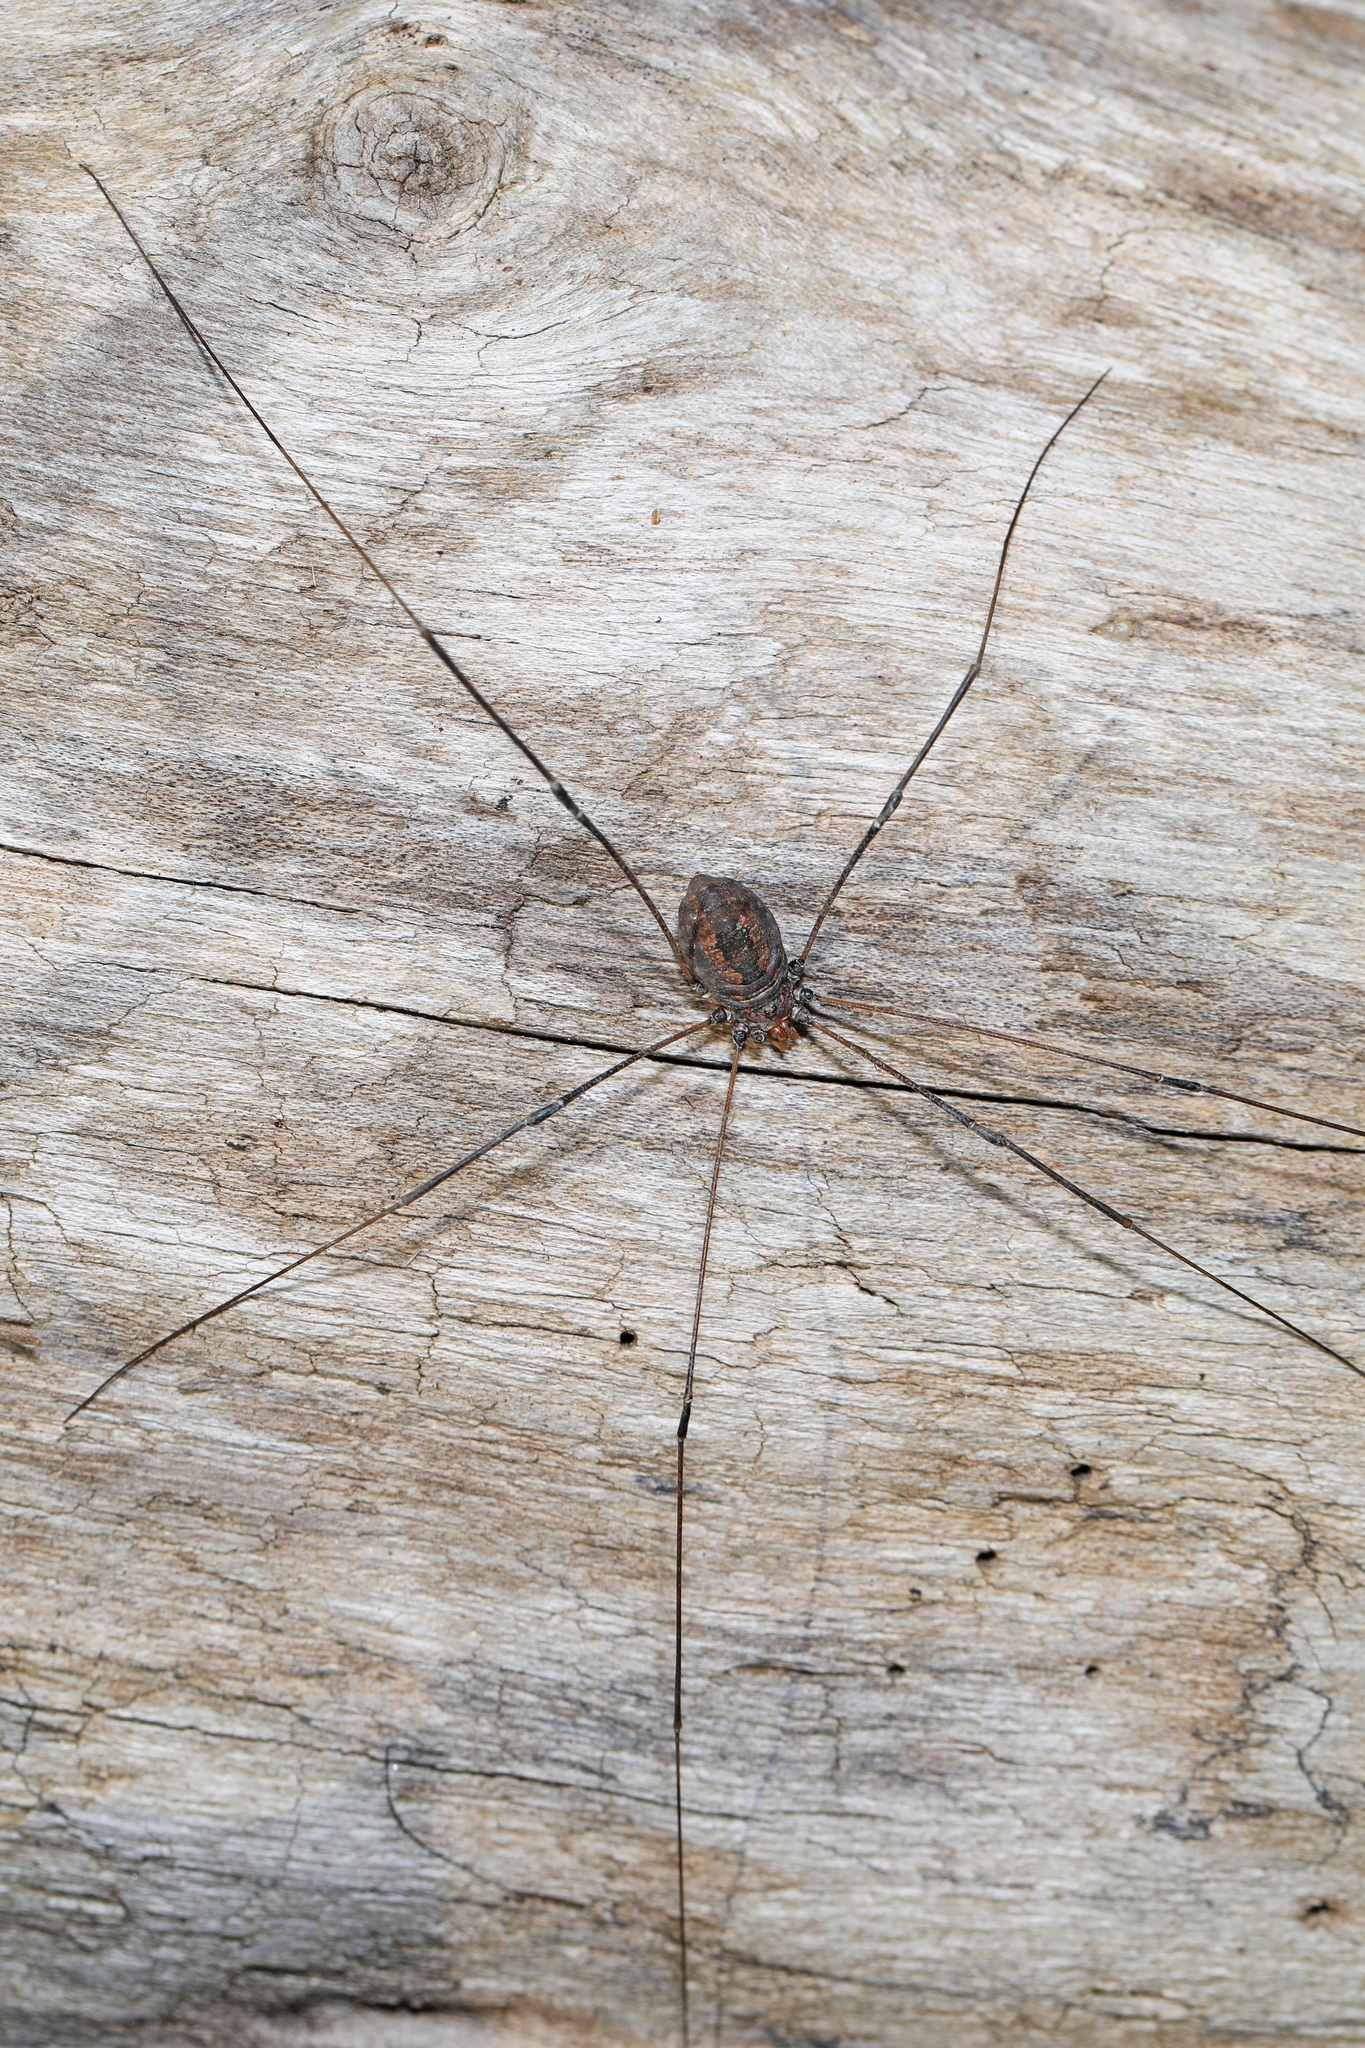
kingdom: Animalia
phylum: Arthropoda
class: Arachnida
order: Opiliones
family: Sclerosomatidae
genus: Leiobunum
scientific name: Leiobunum vittatum
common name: Eastern harvestman
